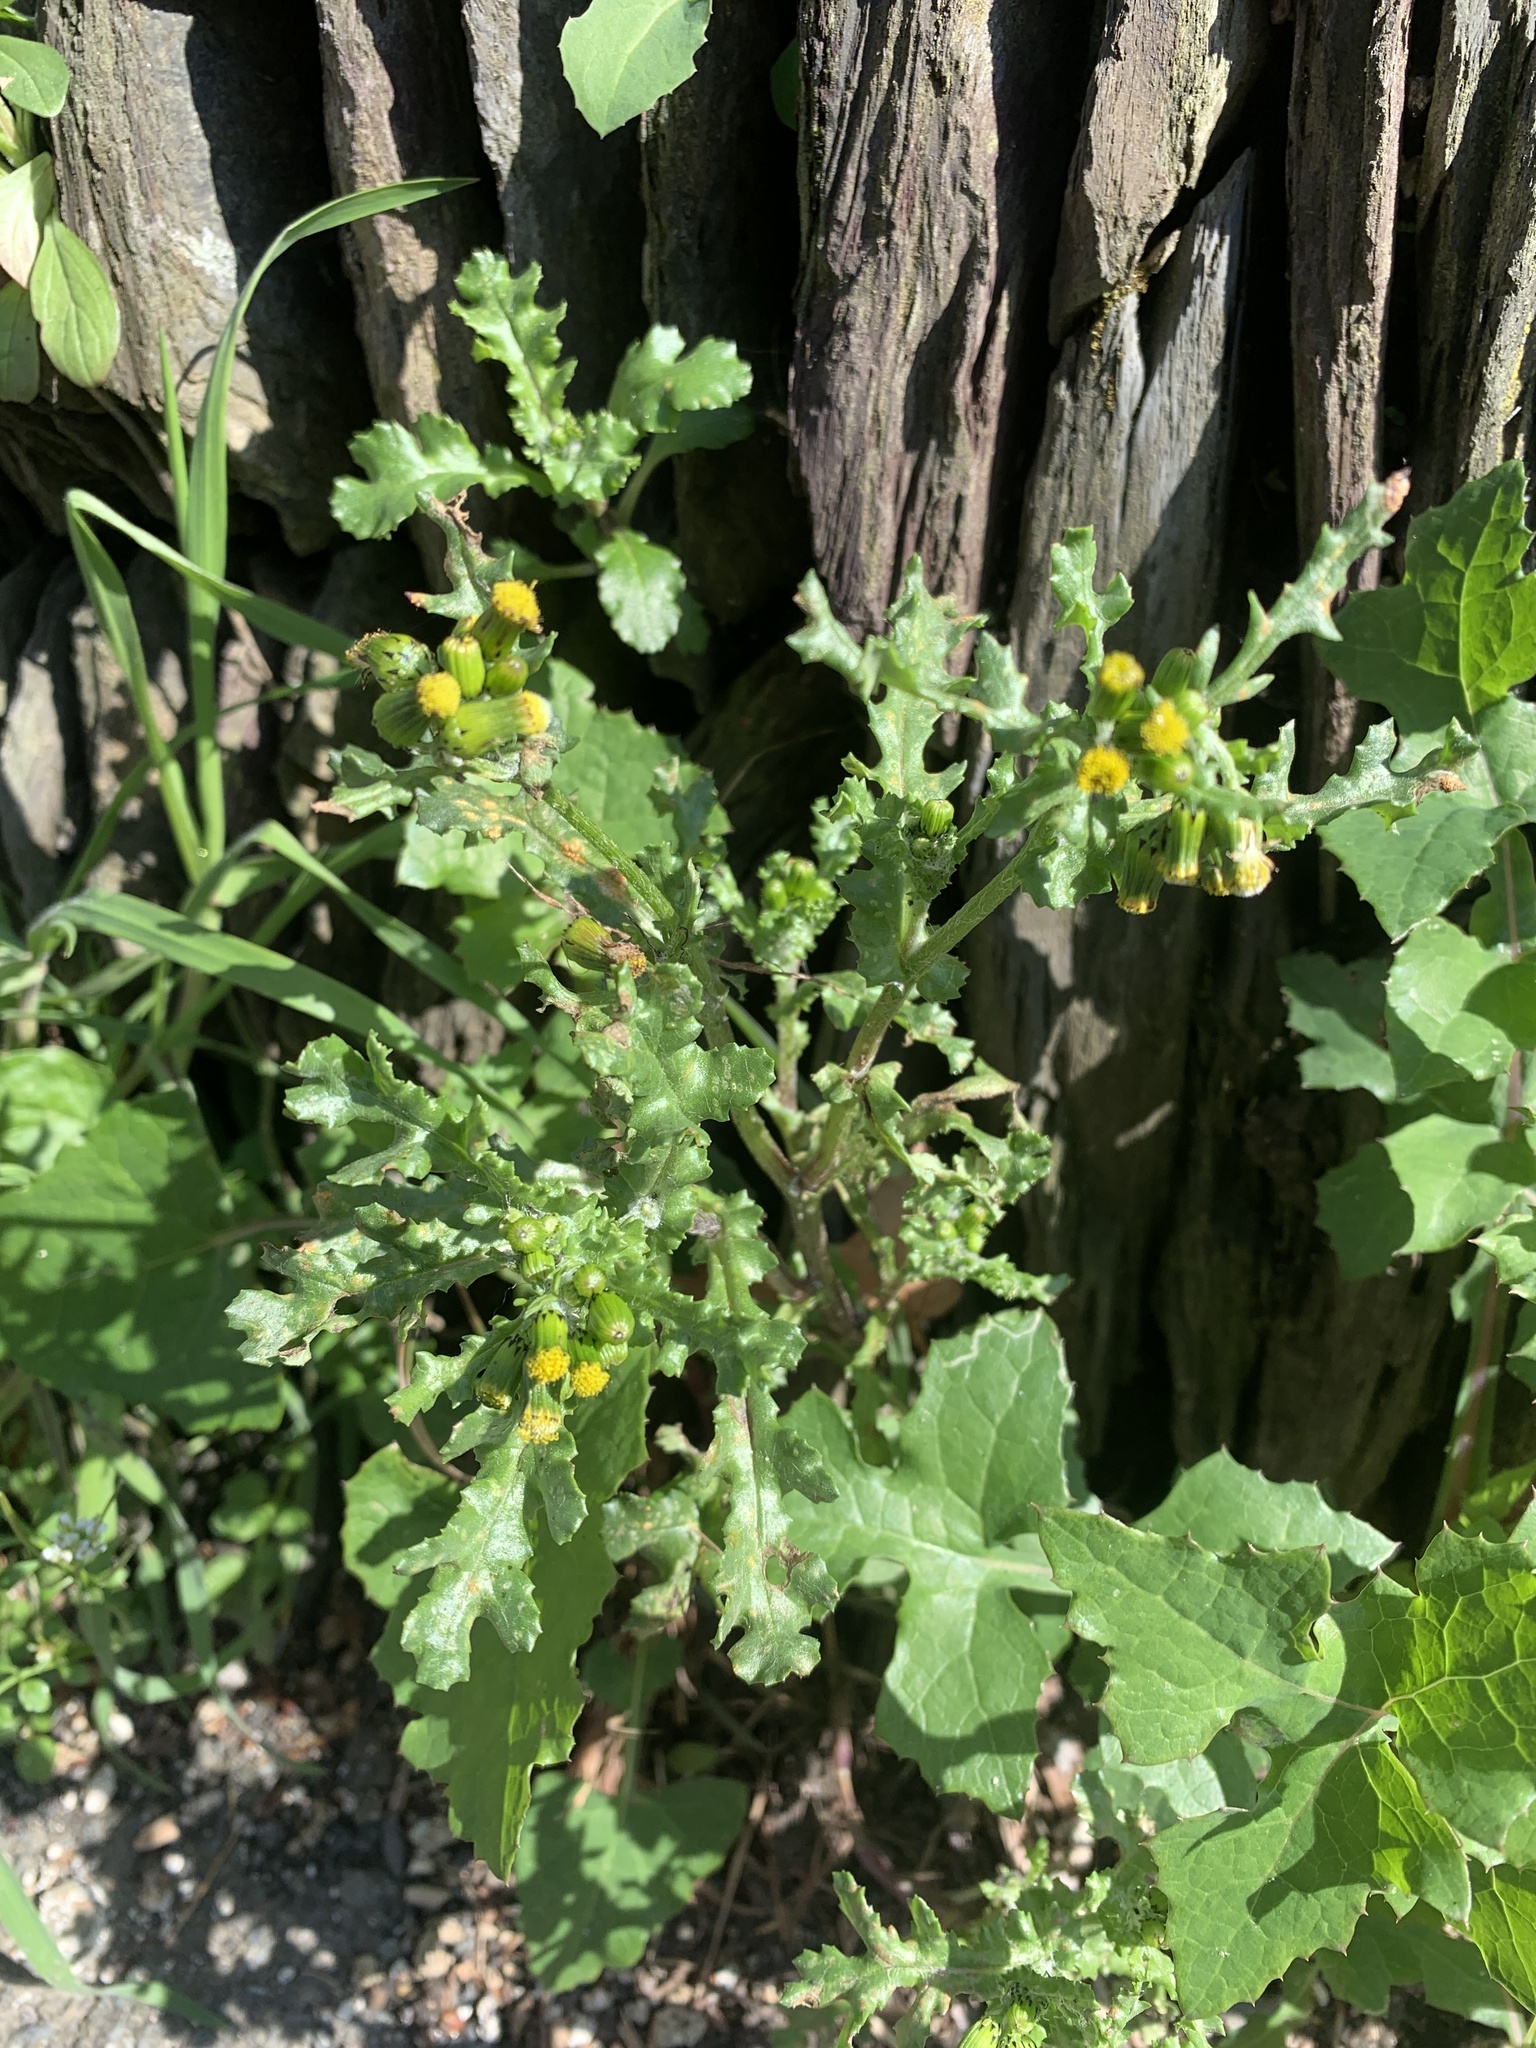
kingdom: Plantae
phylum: Tracheophyta
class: Magnoliopsida
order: Asterales
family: Asteraceae
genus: Senecio
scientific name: Senecio vulgaris
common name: Old-man-in-the-spring
